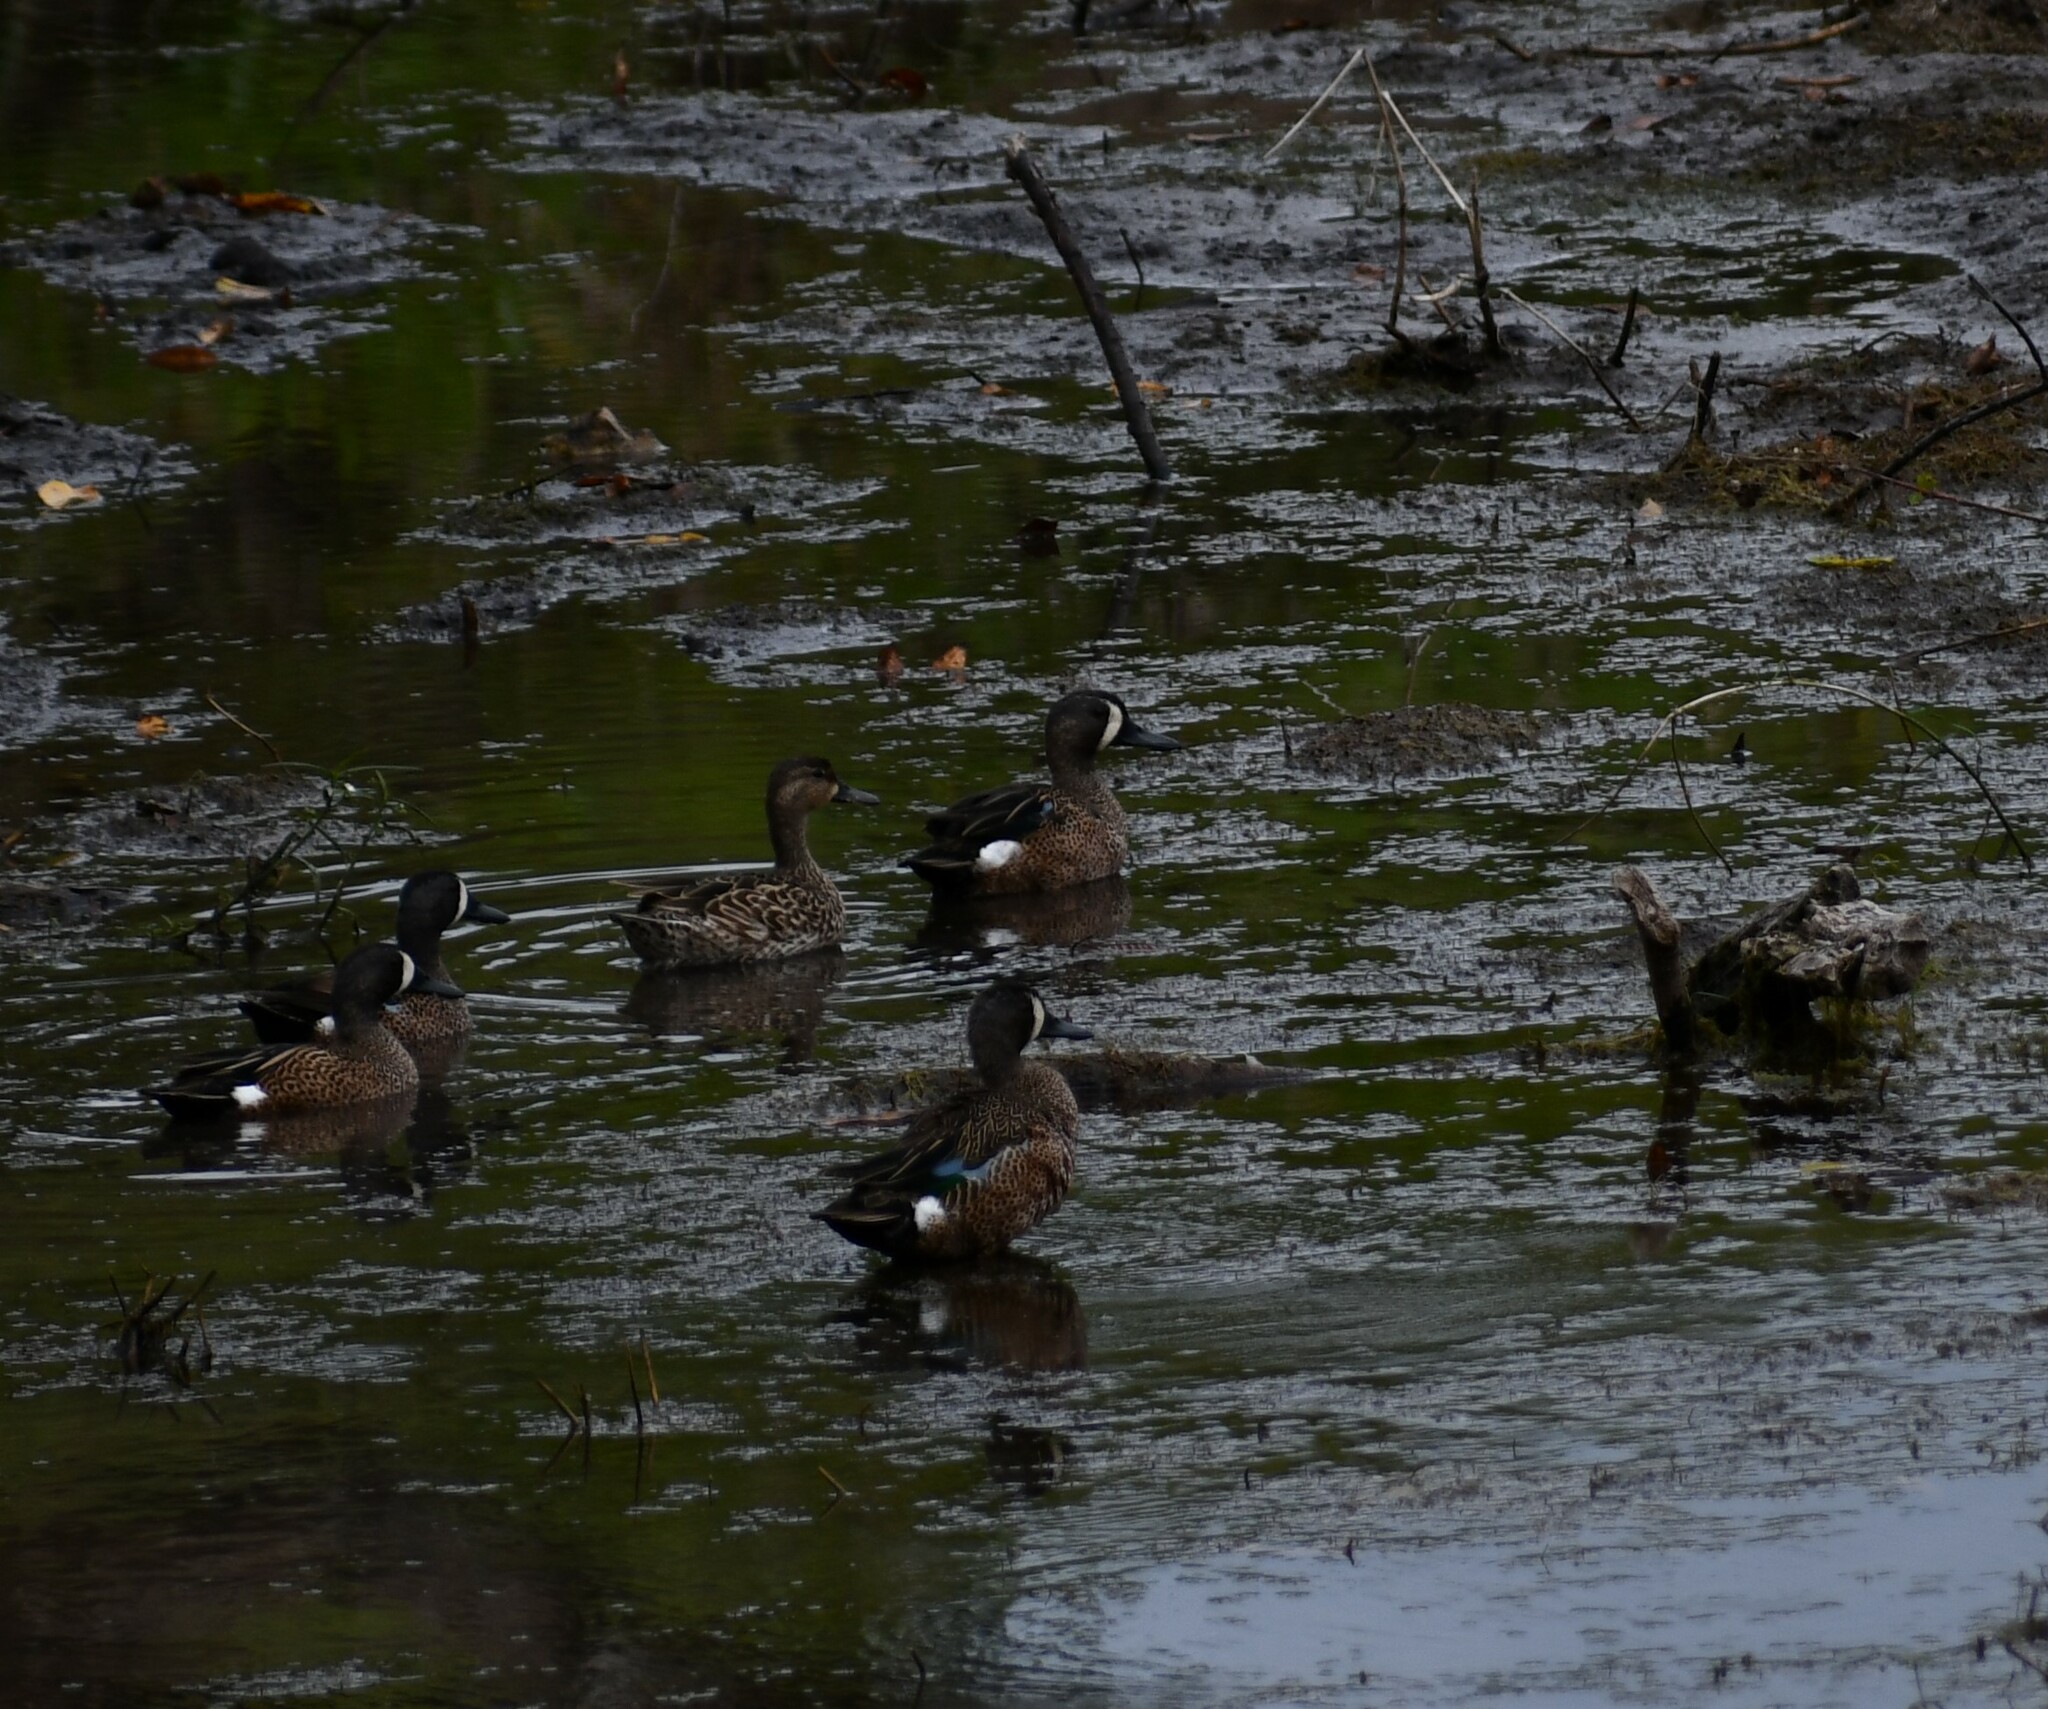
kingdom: Animalia
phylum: Chordata
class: Aves
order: Anseriformes
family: Anatidae
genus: Spatula
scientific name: Spatula discors
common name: Blue-winged teal
